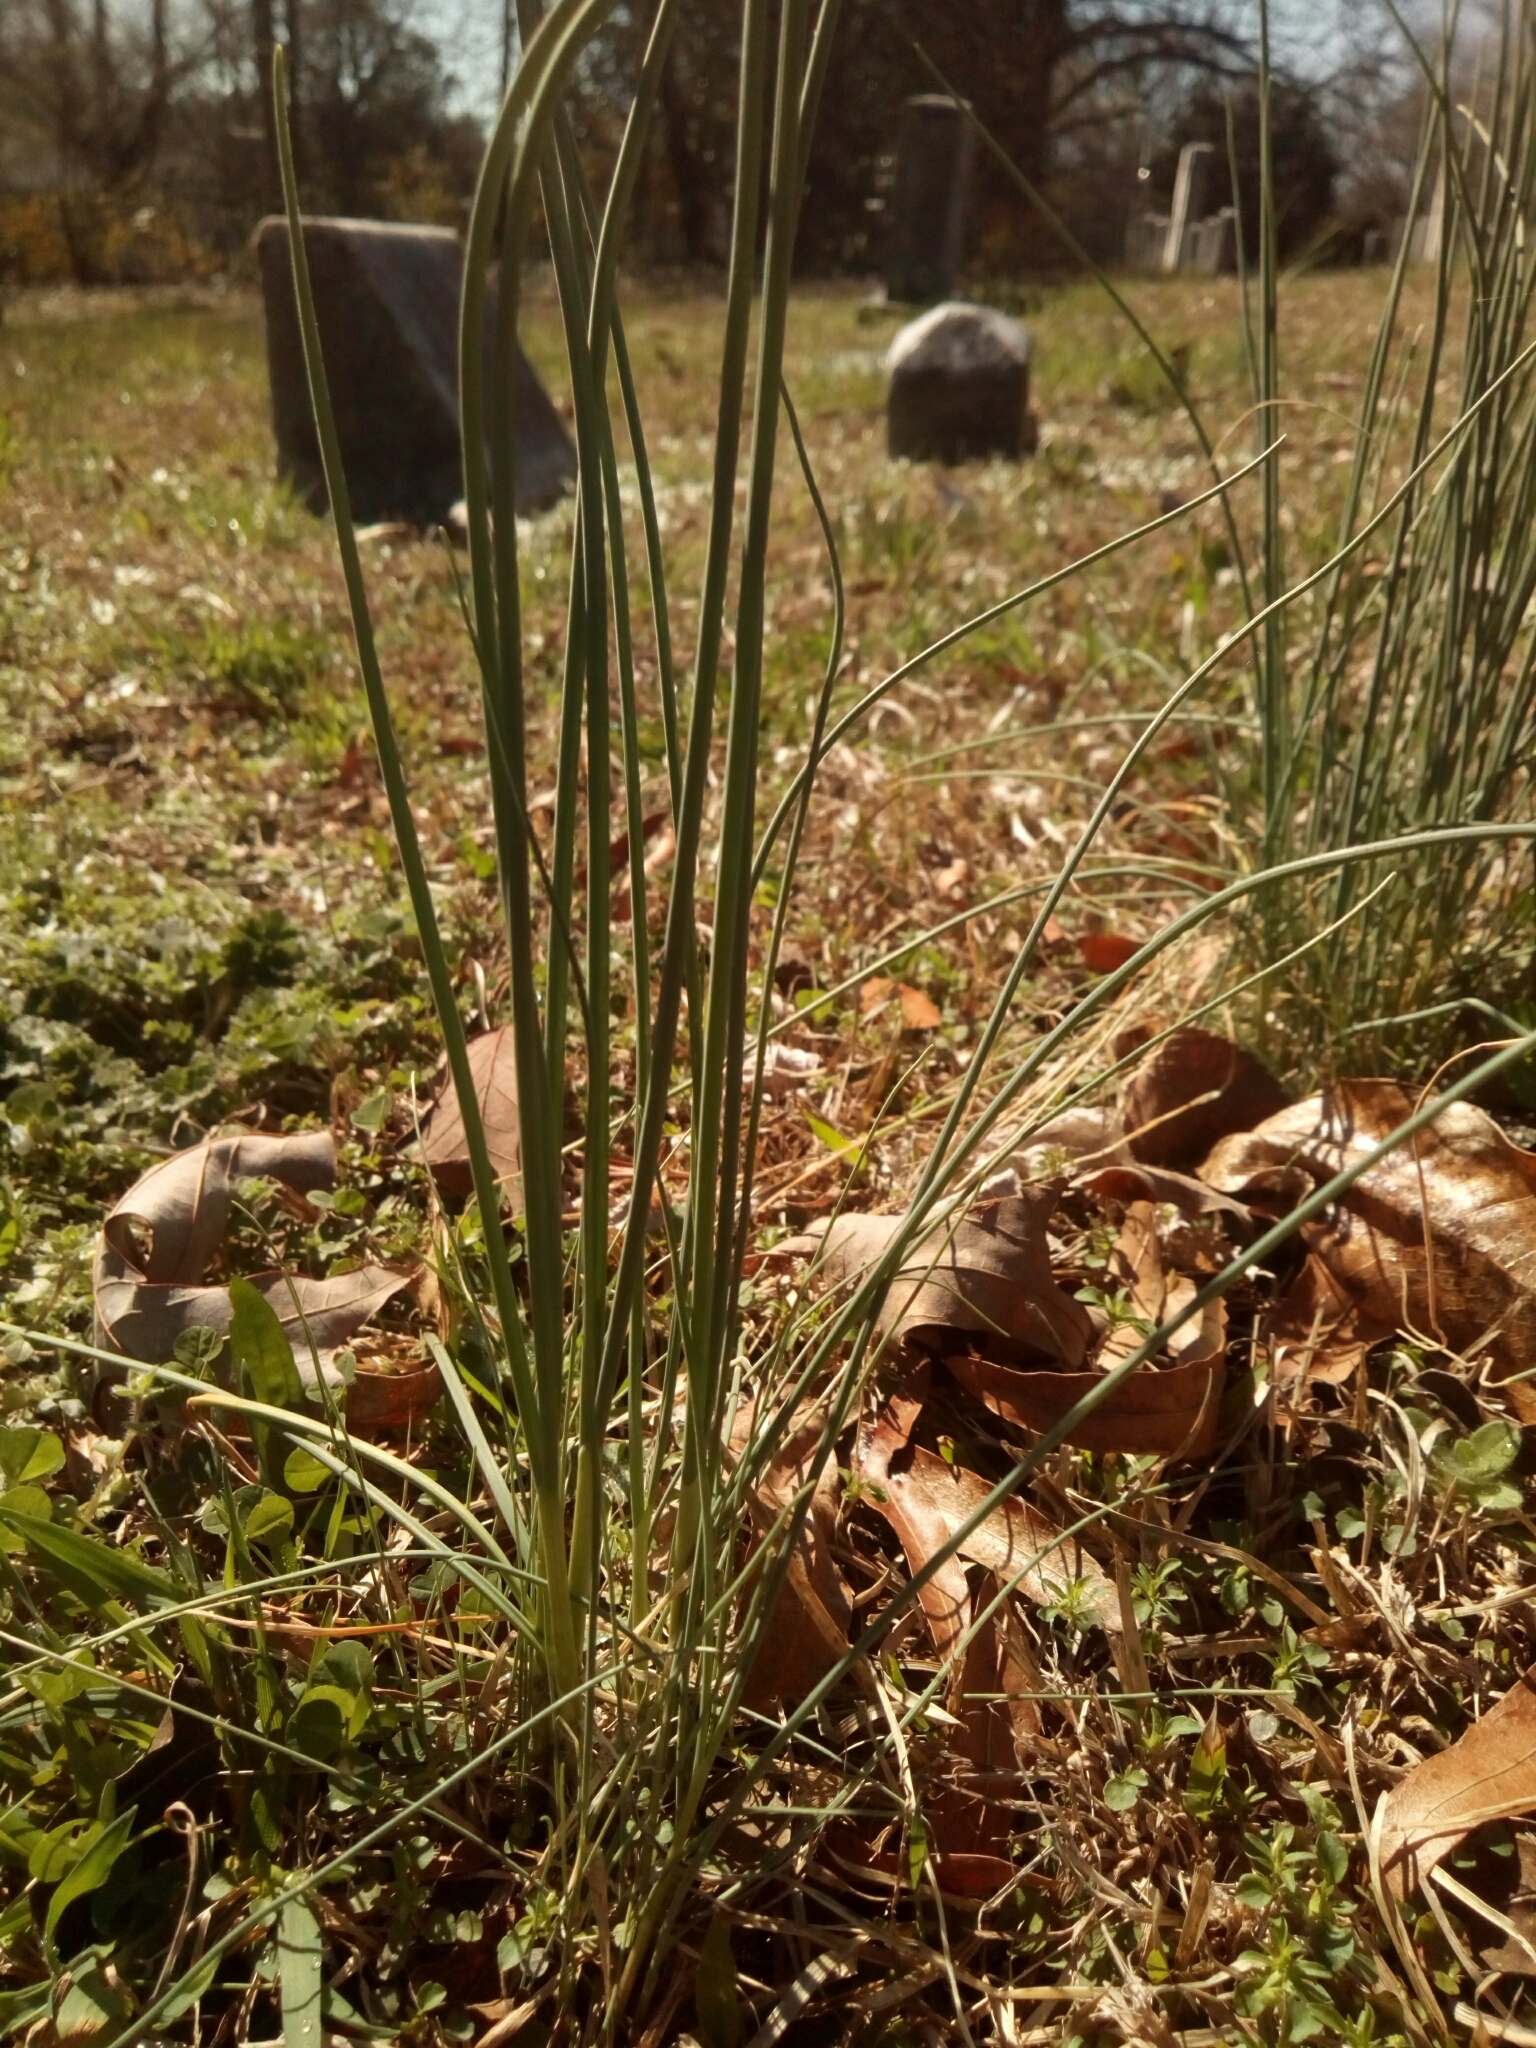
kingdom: Plantae
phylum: Tracheophyta
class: Liliopsida
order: Asparagales
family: Amaryllidaceae
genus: Allium
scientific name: Allium vineale
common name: Crow garlic
